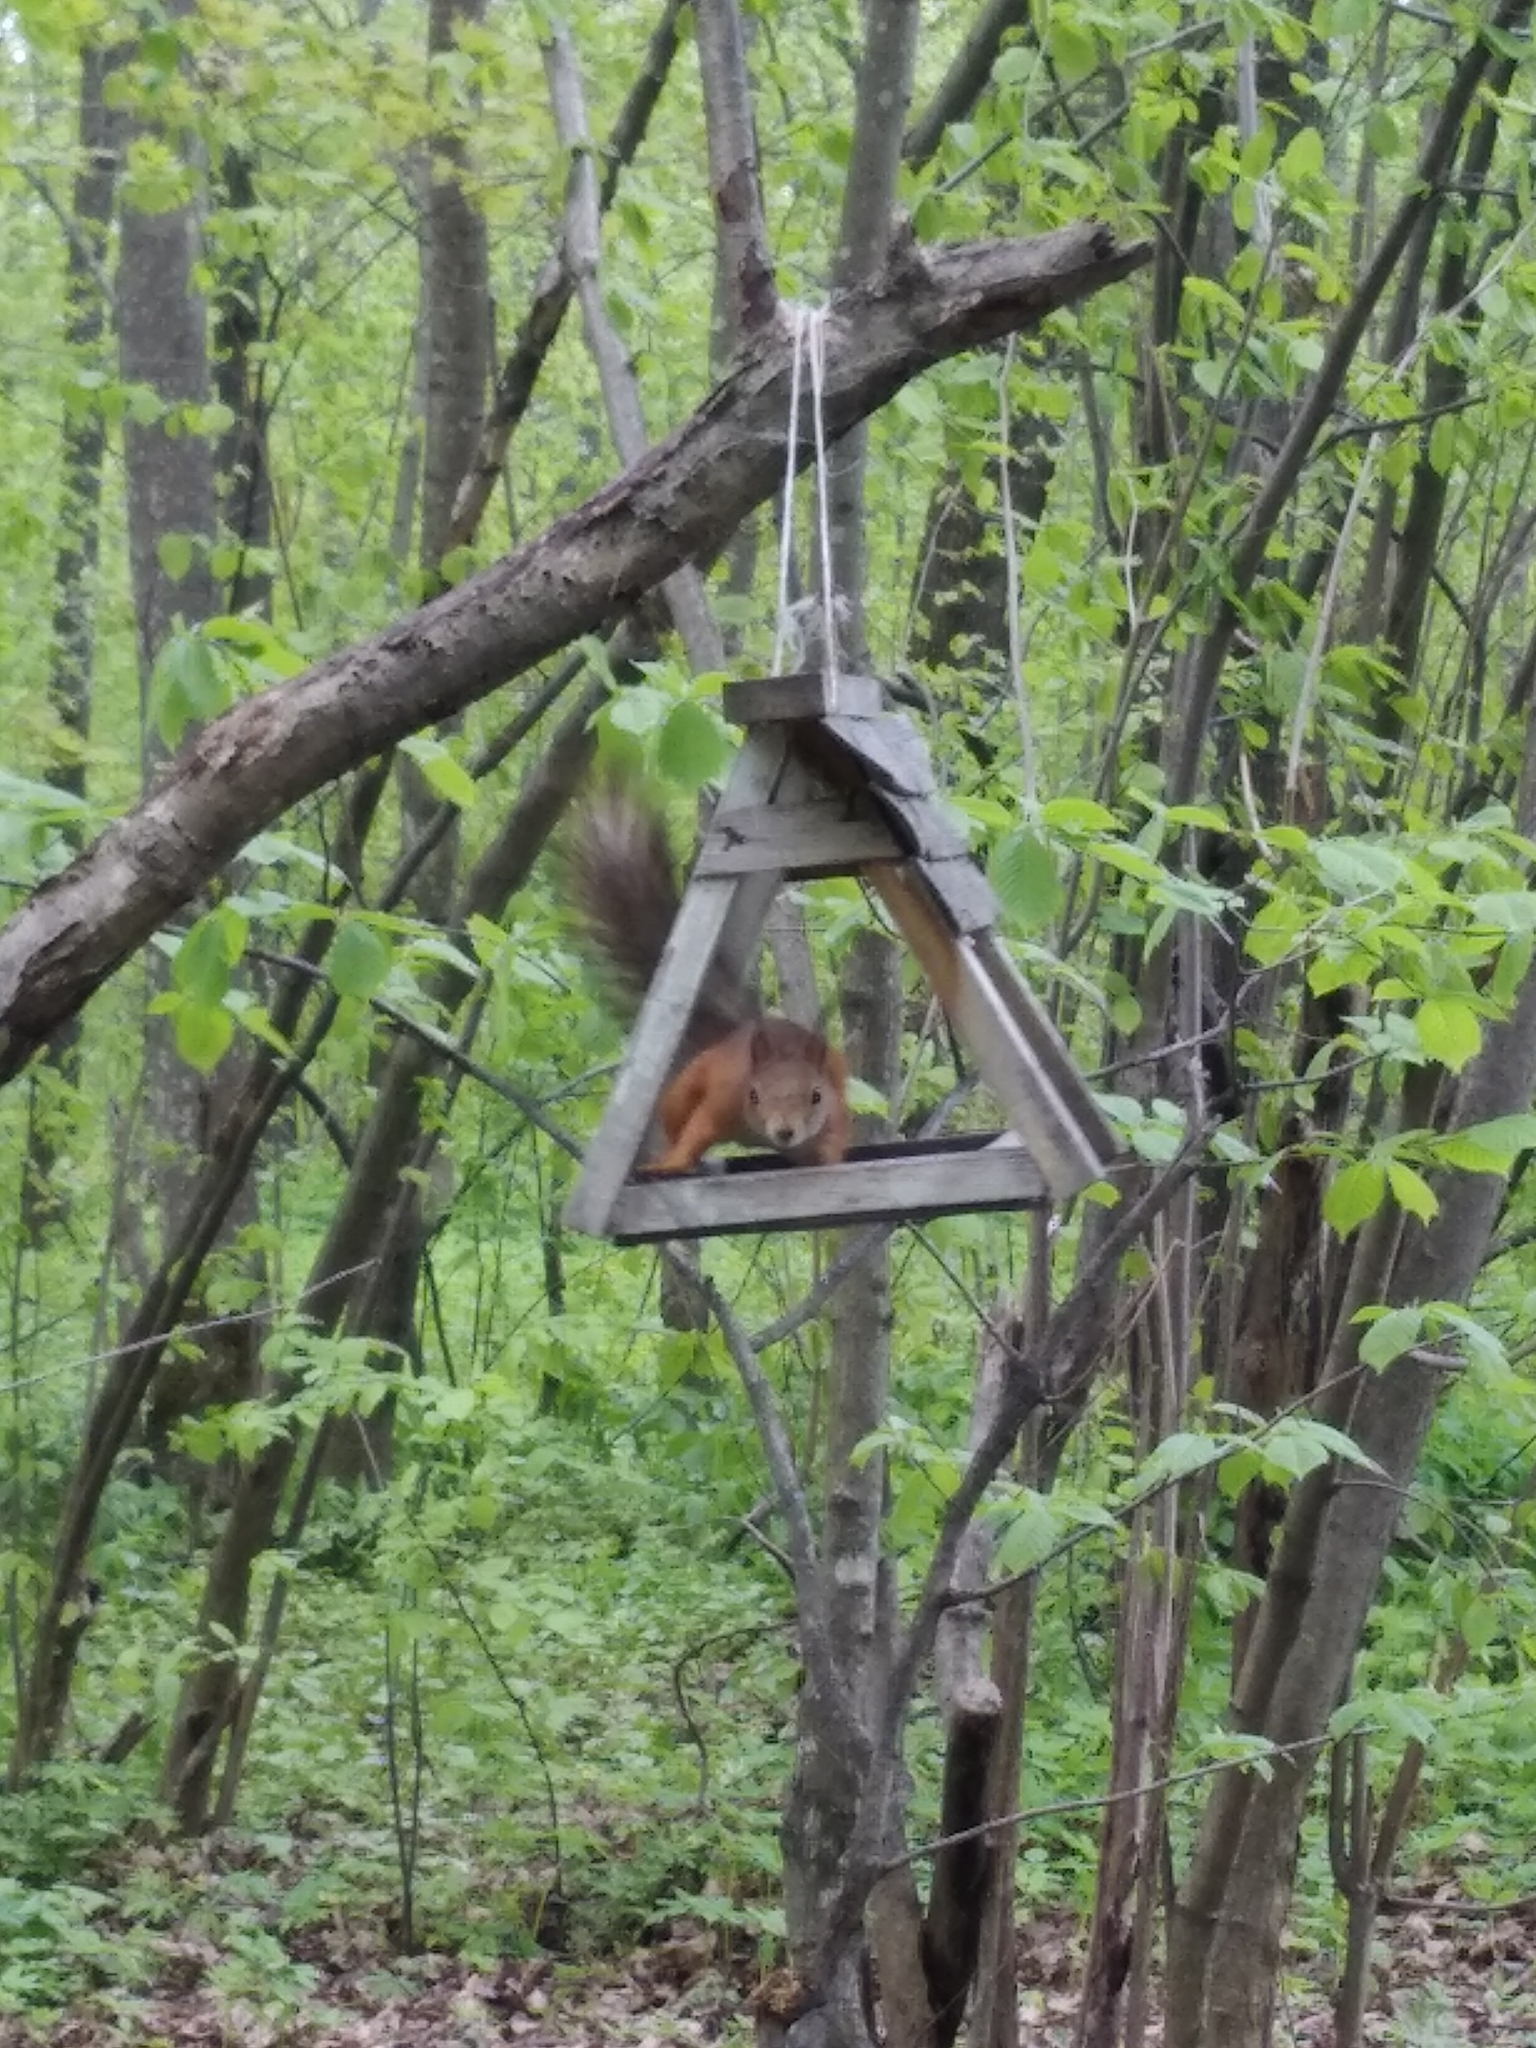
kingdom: Animalia
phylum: Chordata
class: Mammalia
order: Rodentia
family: Sciuridae
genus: Sciurus
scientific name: Sciurus vulgaris
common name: Eurasian red squirrel
